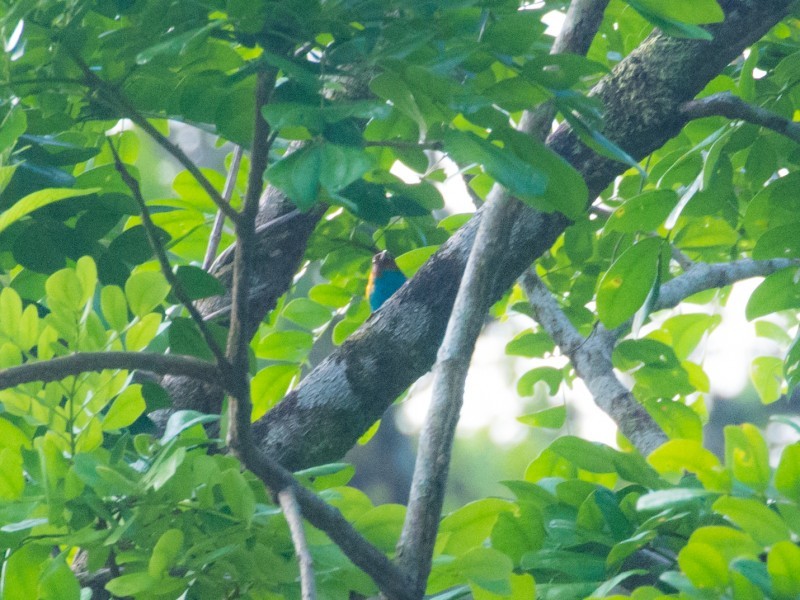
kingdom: Animalia
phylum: Chordata
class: Aves
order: Passeriformes
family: Thraupidae
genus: Tangara
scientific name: Tangara gyrola
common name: Bay-headed tanager
